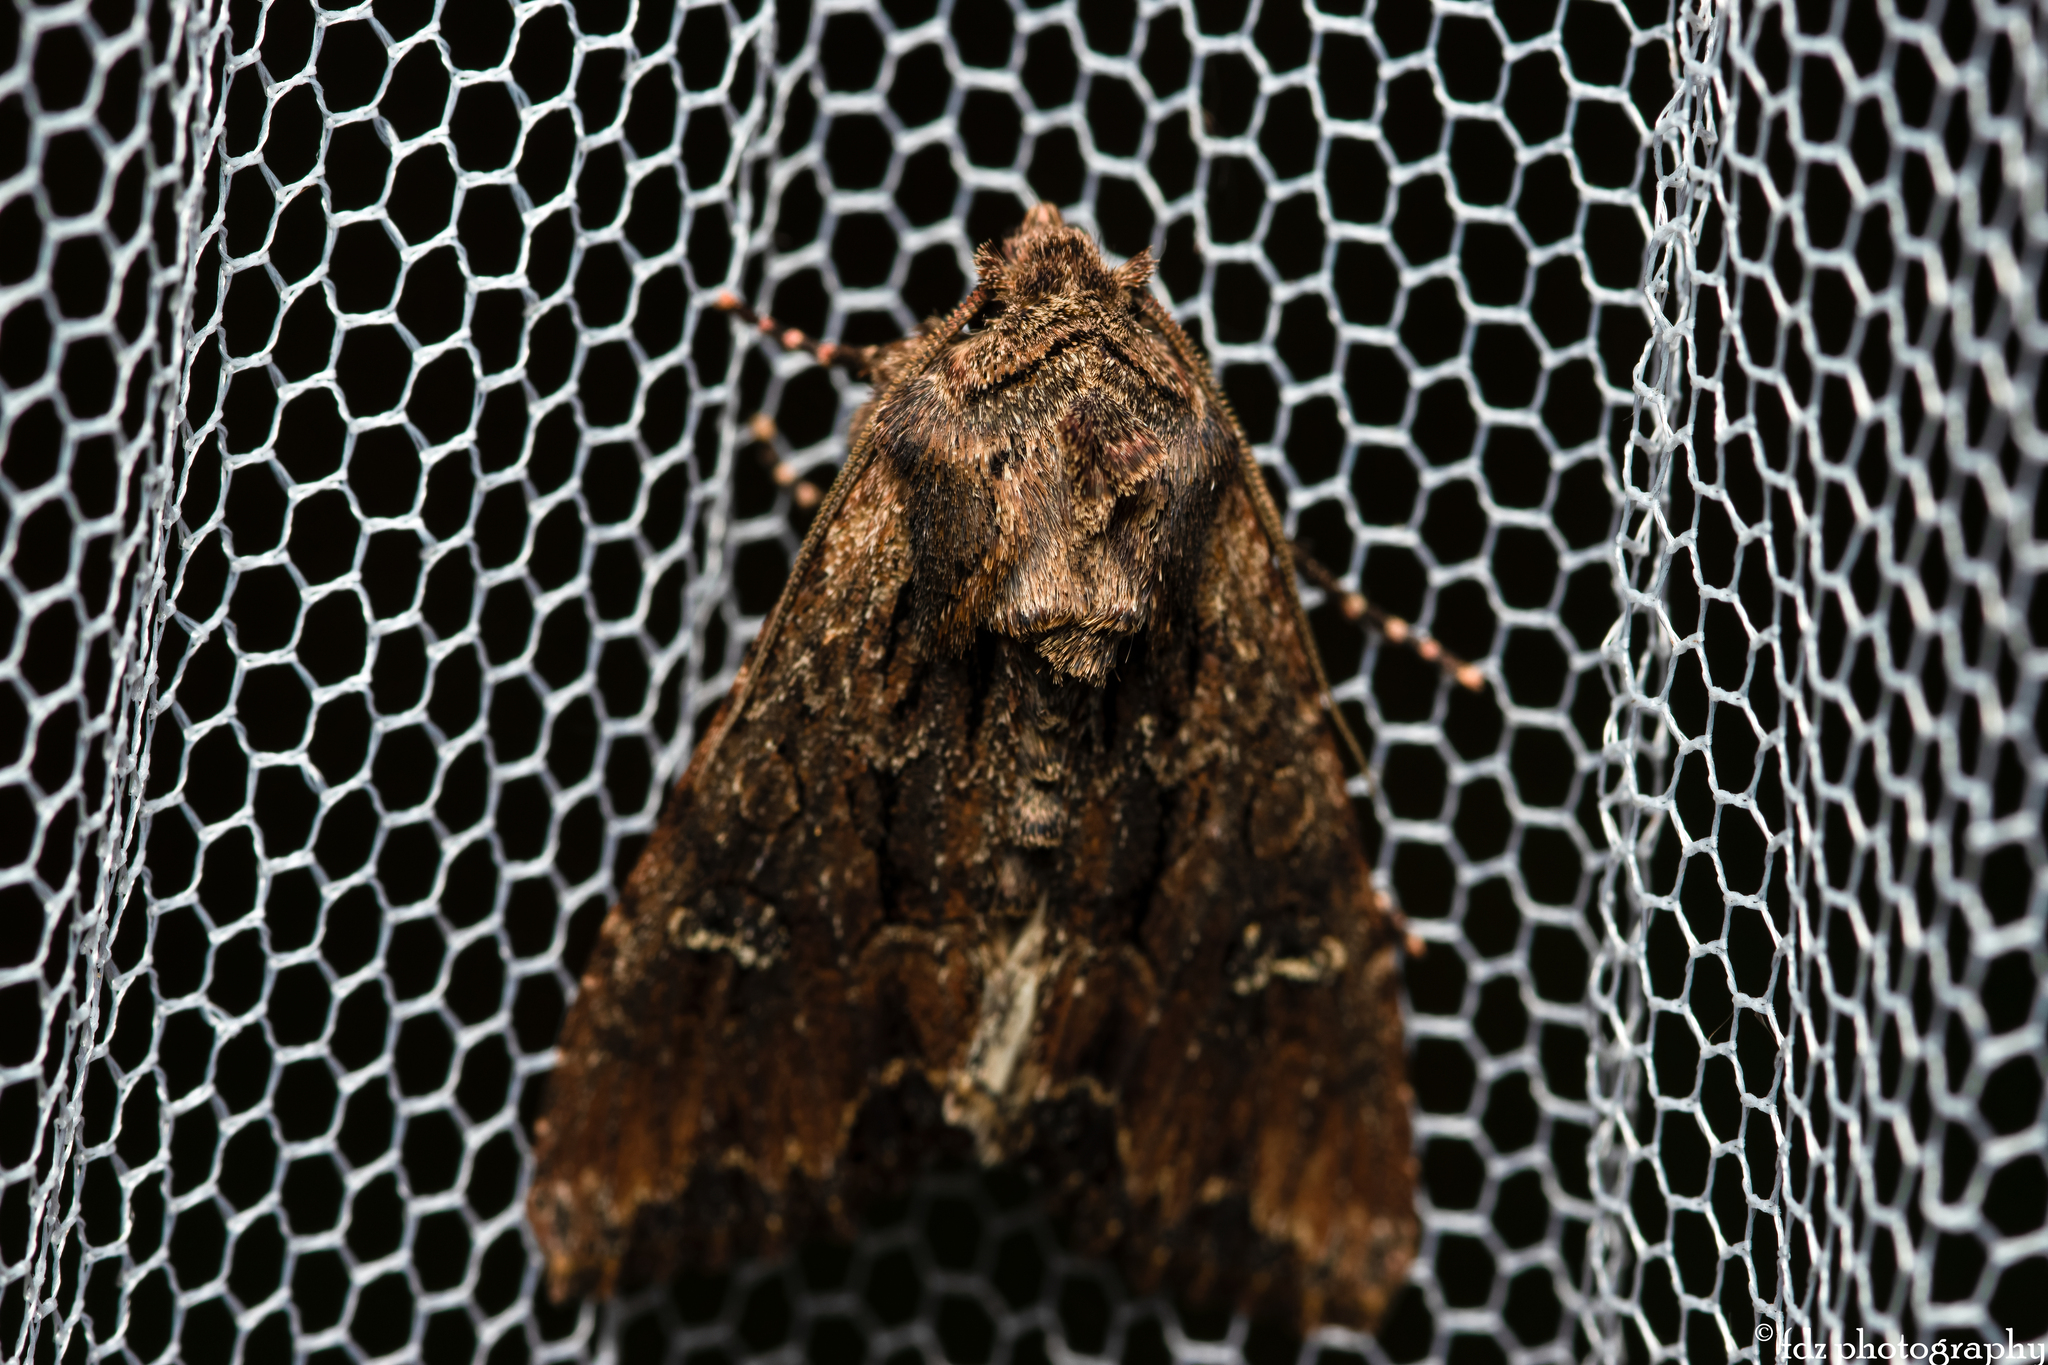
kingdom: Animalia
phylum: Arthropoda
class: Insecta
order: Lepidoptera
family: Noctuidae
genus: Mniotype
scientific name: Mniotype occidentalis
